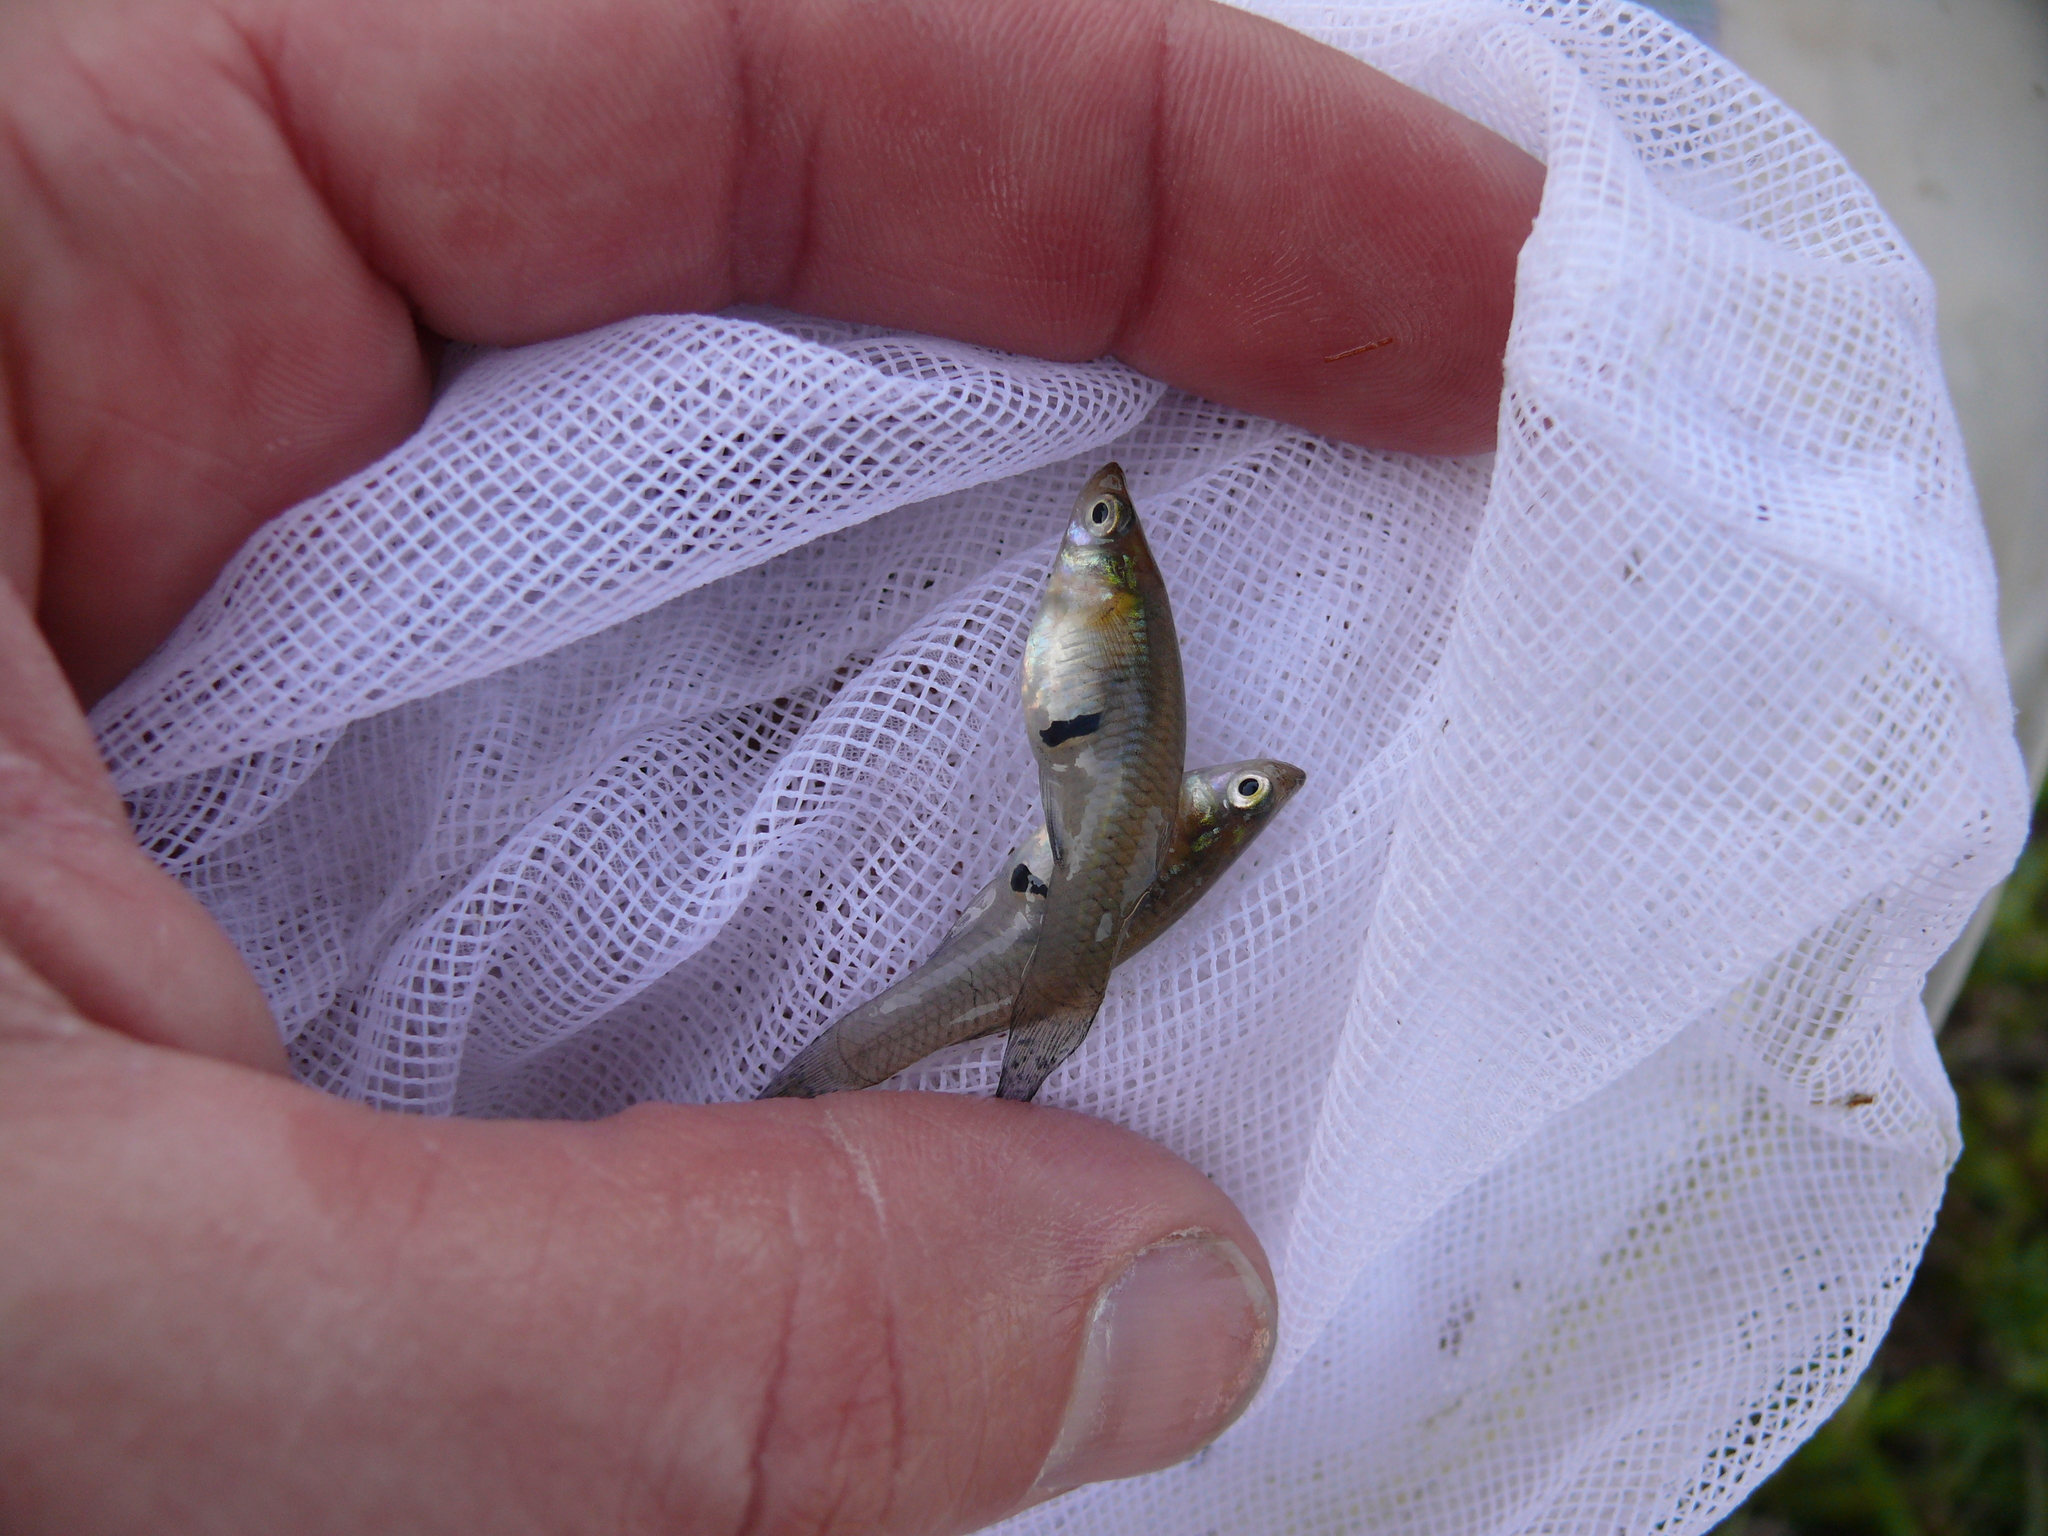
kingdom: Animalia
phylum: Chordata
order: Cyprinodontiformes
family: Poeciliidae
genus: Gambusia
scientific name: Gambusia holbrooki
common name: Eastern mosquitofish
